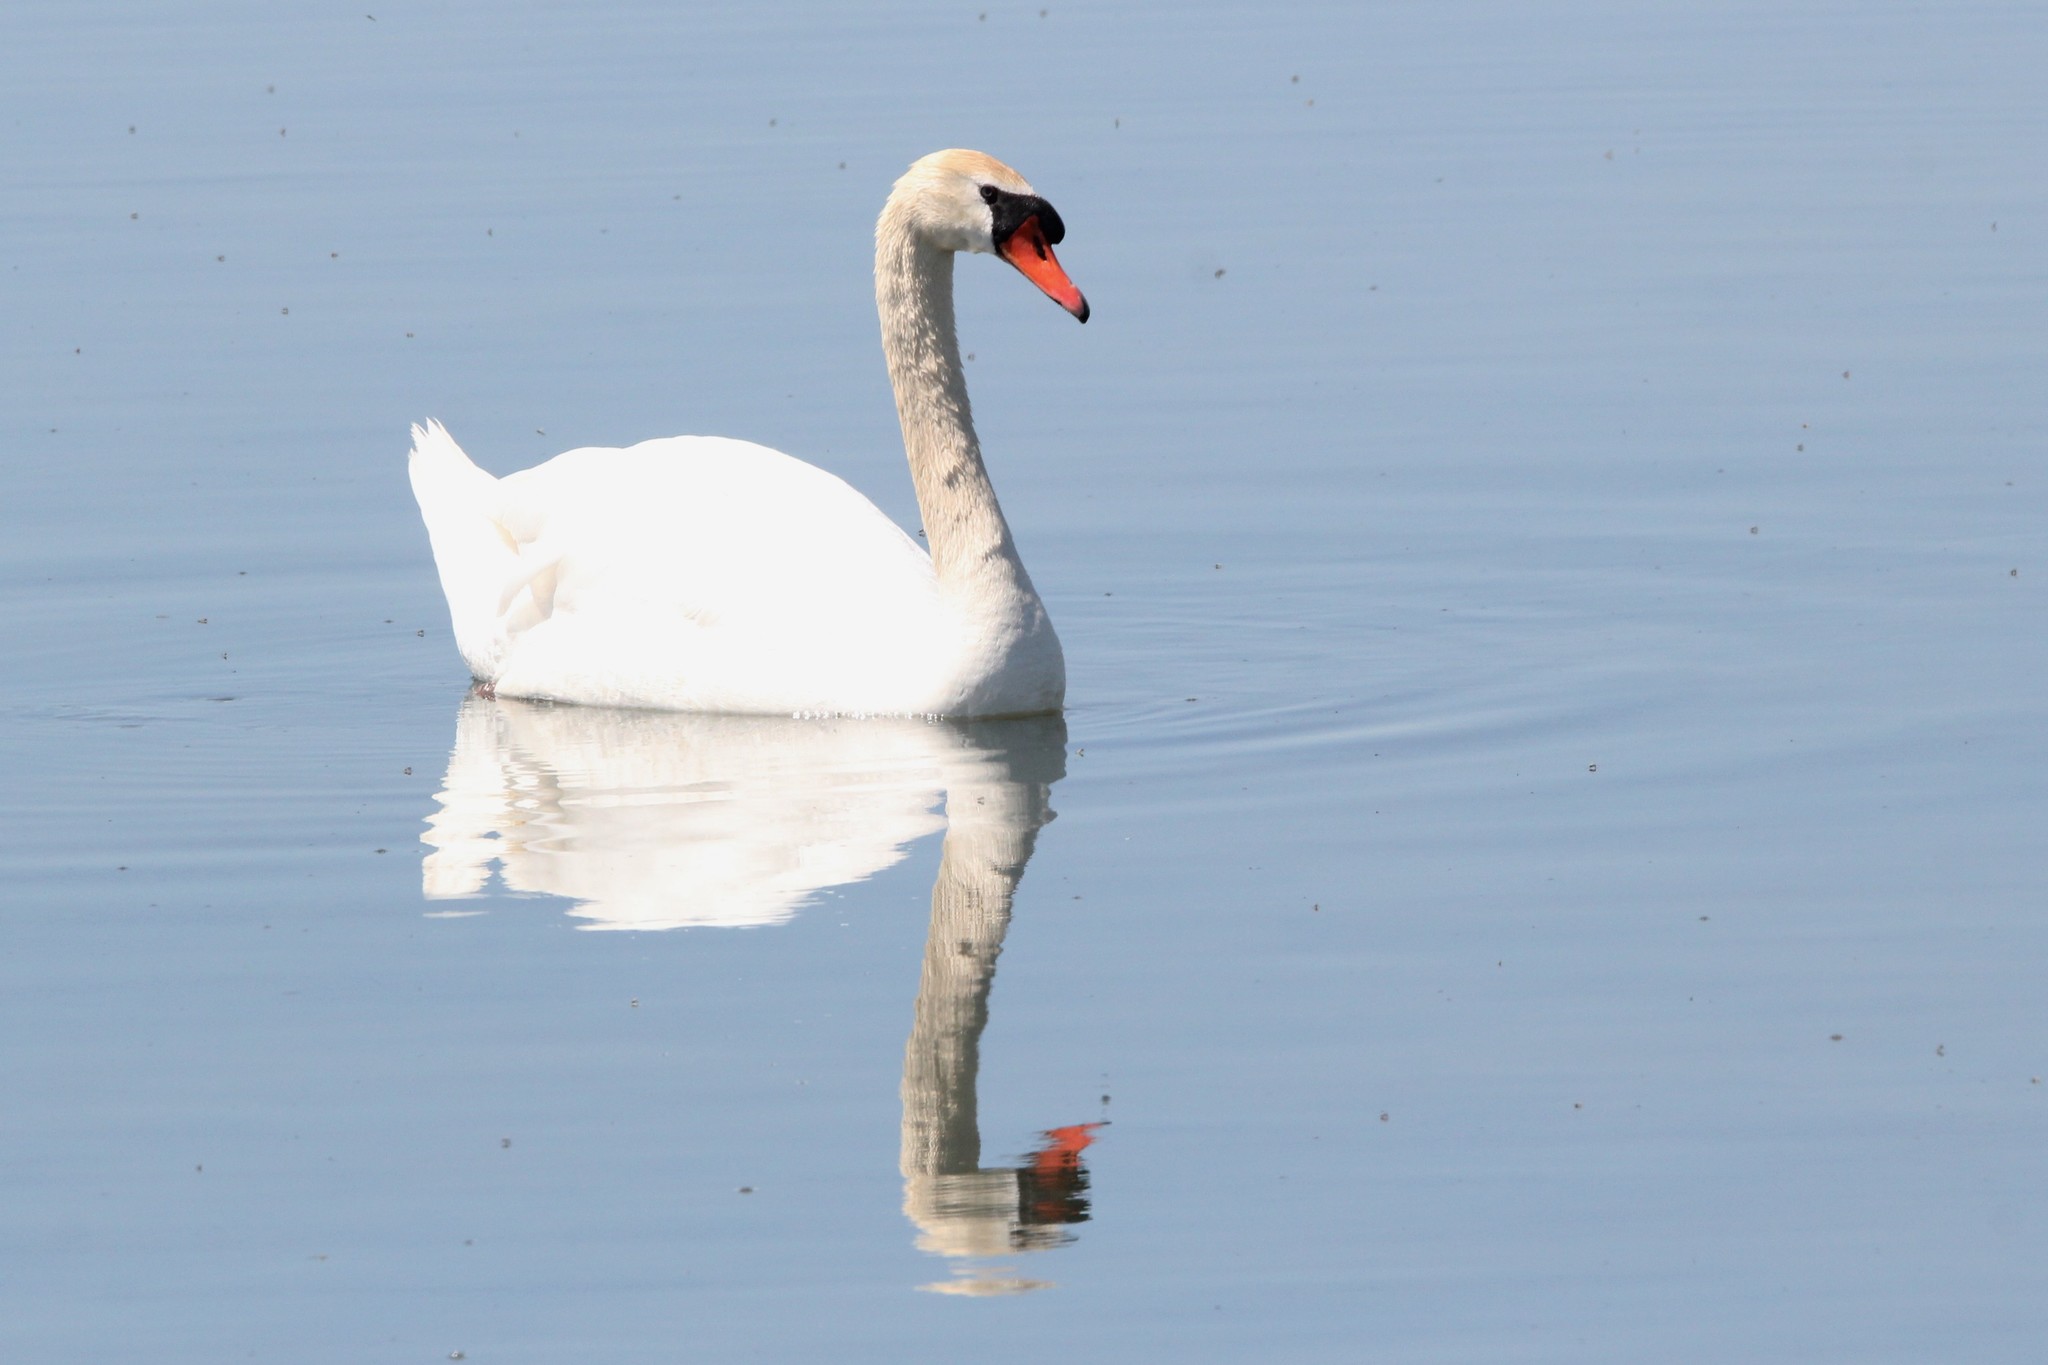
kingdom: Animalia
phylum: Chordata
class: Aves
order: Anseriformes
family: Anatidae
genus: Cygnus
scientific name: Cygnus olor
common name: Mute swan
